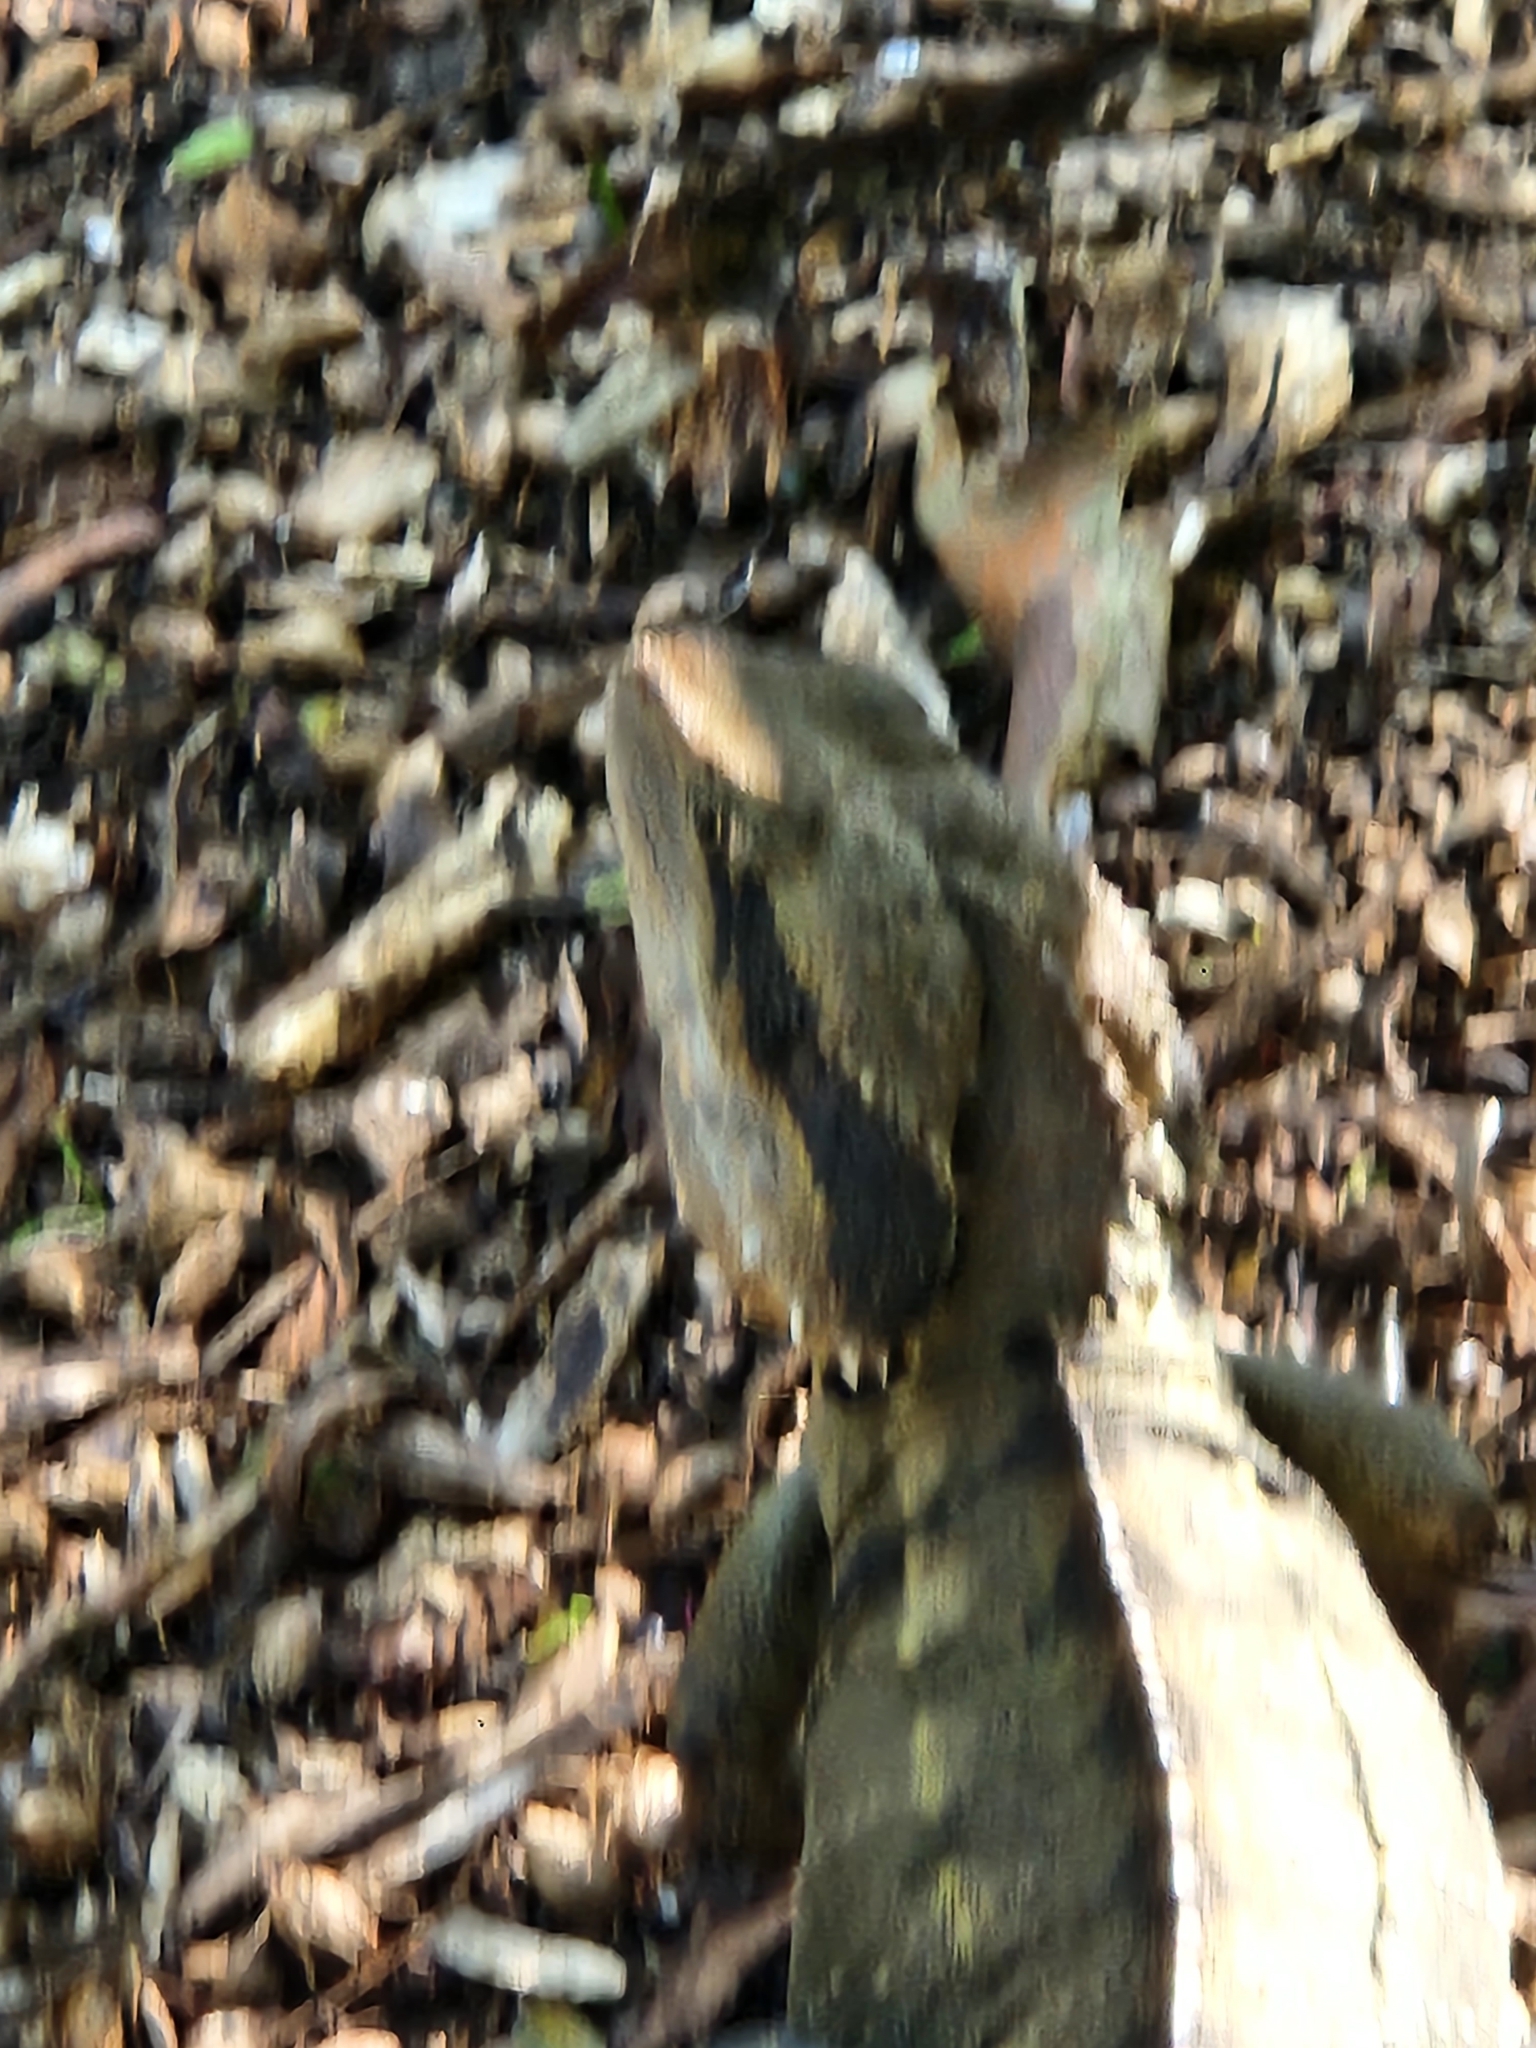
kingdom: Animalia
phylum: Chordata
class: Squamata
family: Agamidae
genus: Intellagama
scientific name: Intellagama lesueurii
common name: Eastern water dragon
